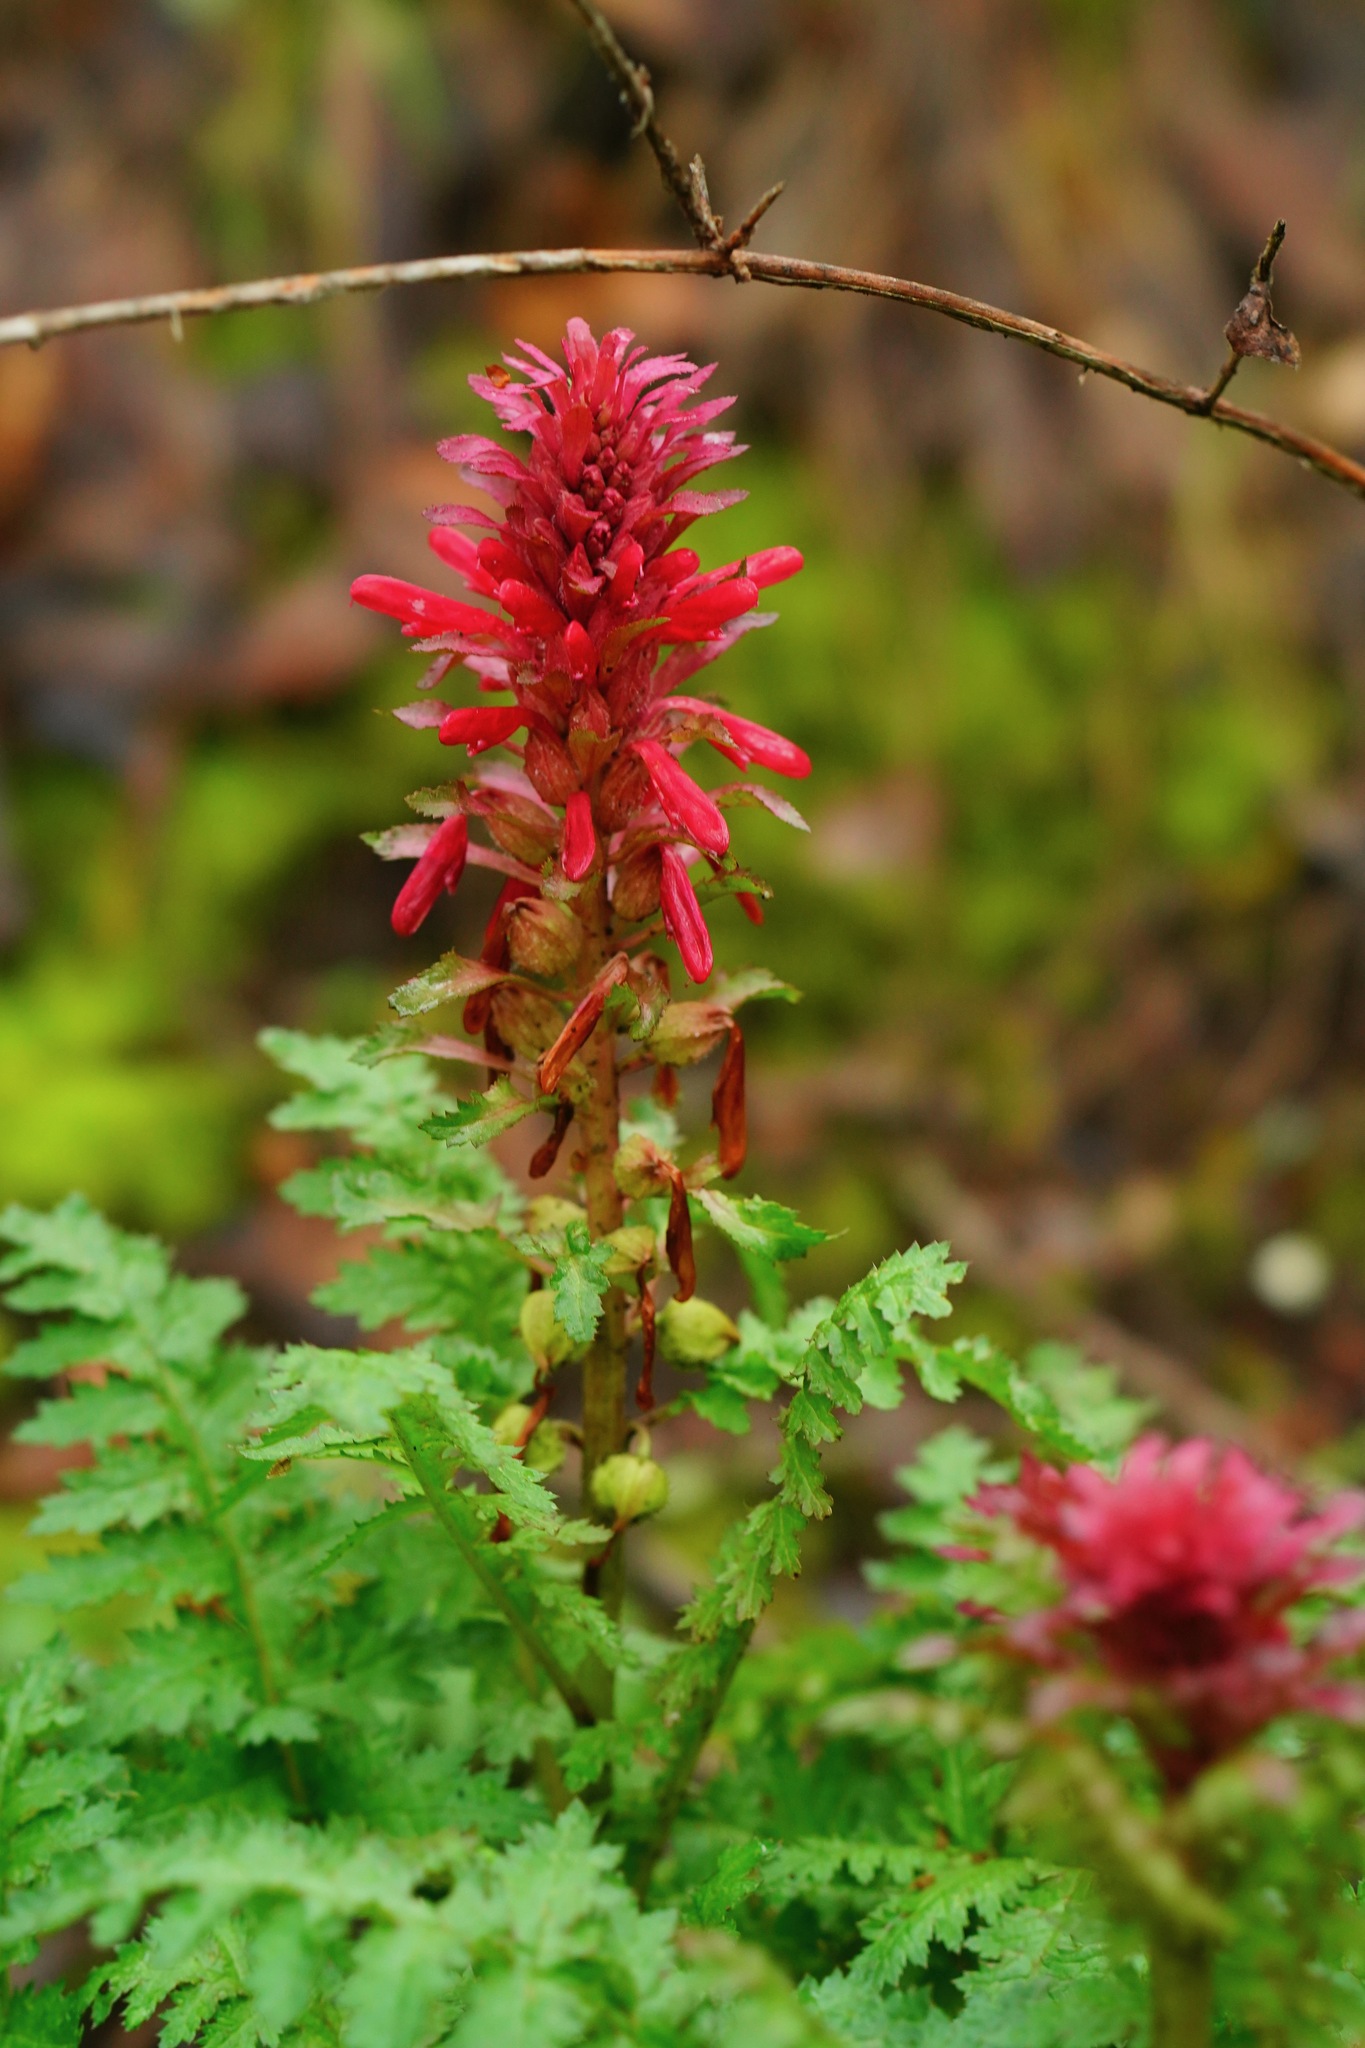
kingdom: Plantae
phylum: Tracheophyta
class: Magnoliopsida
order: Lamiales
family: Orobanchaceae
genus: Pedicularis
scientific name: Pedicularis densiflora
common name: Indian warrior
